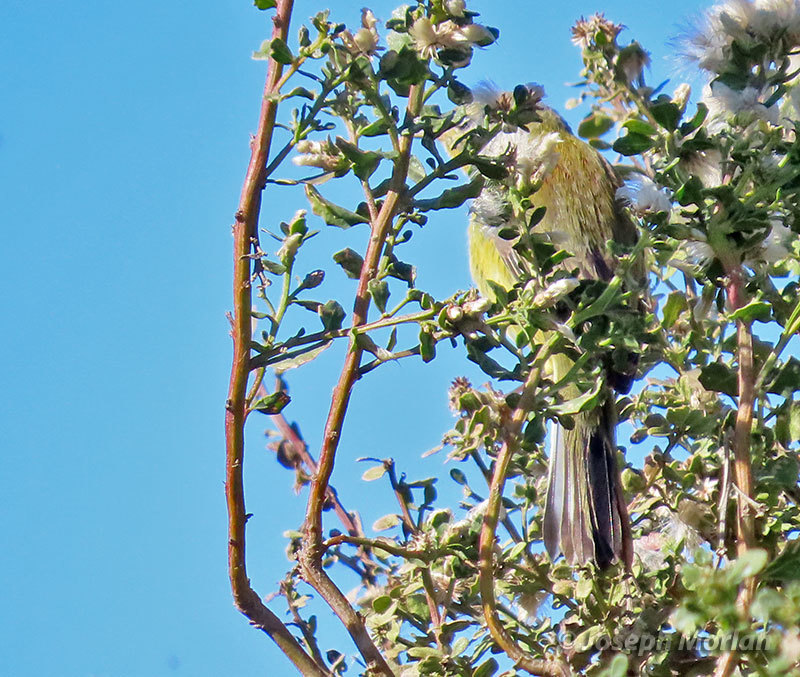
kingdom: Animalia
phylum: Chordata
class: Aves
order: Passeriformes
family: Parulidae
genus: Setophaga
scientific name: Setophaga discolor
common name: Prairie warbler
